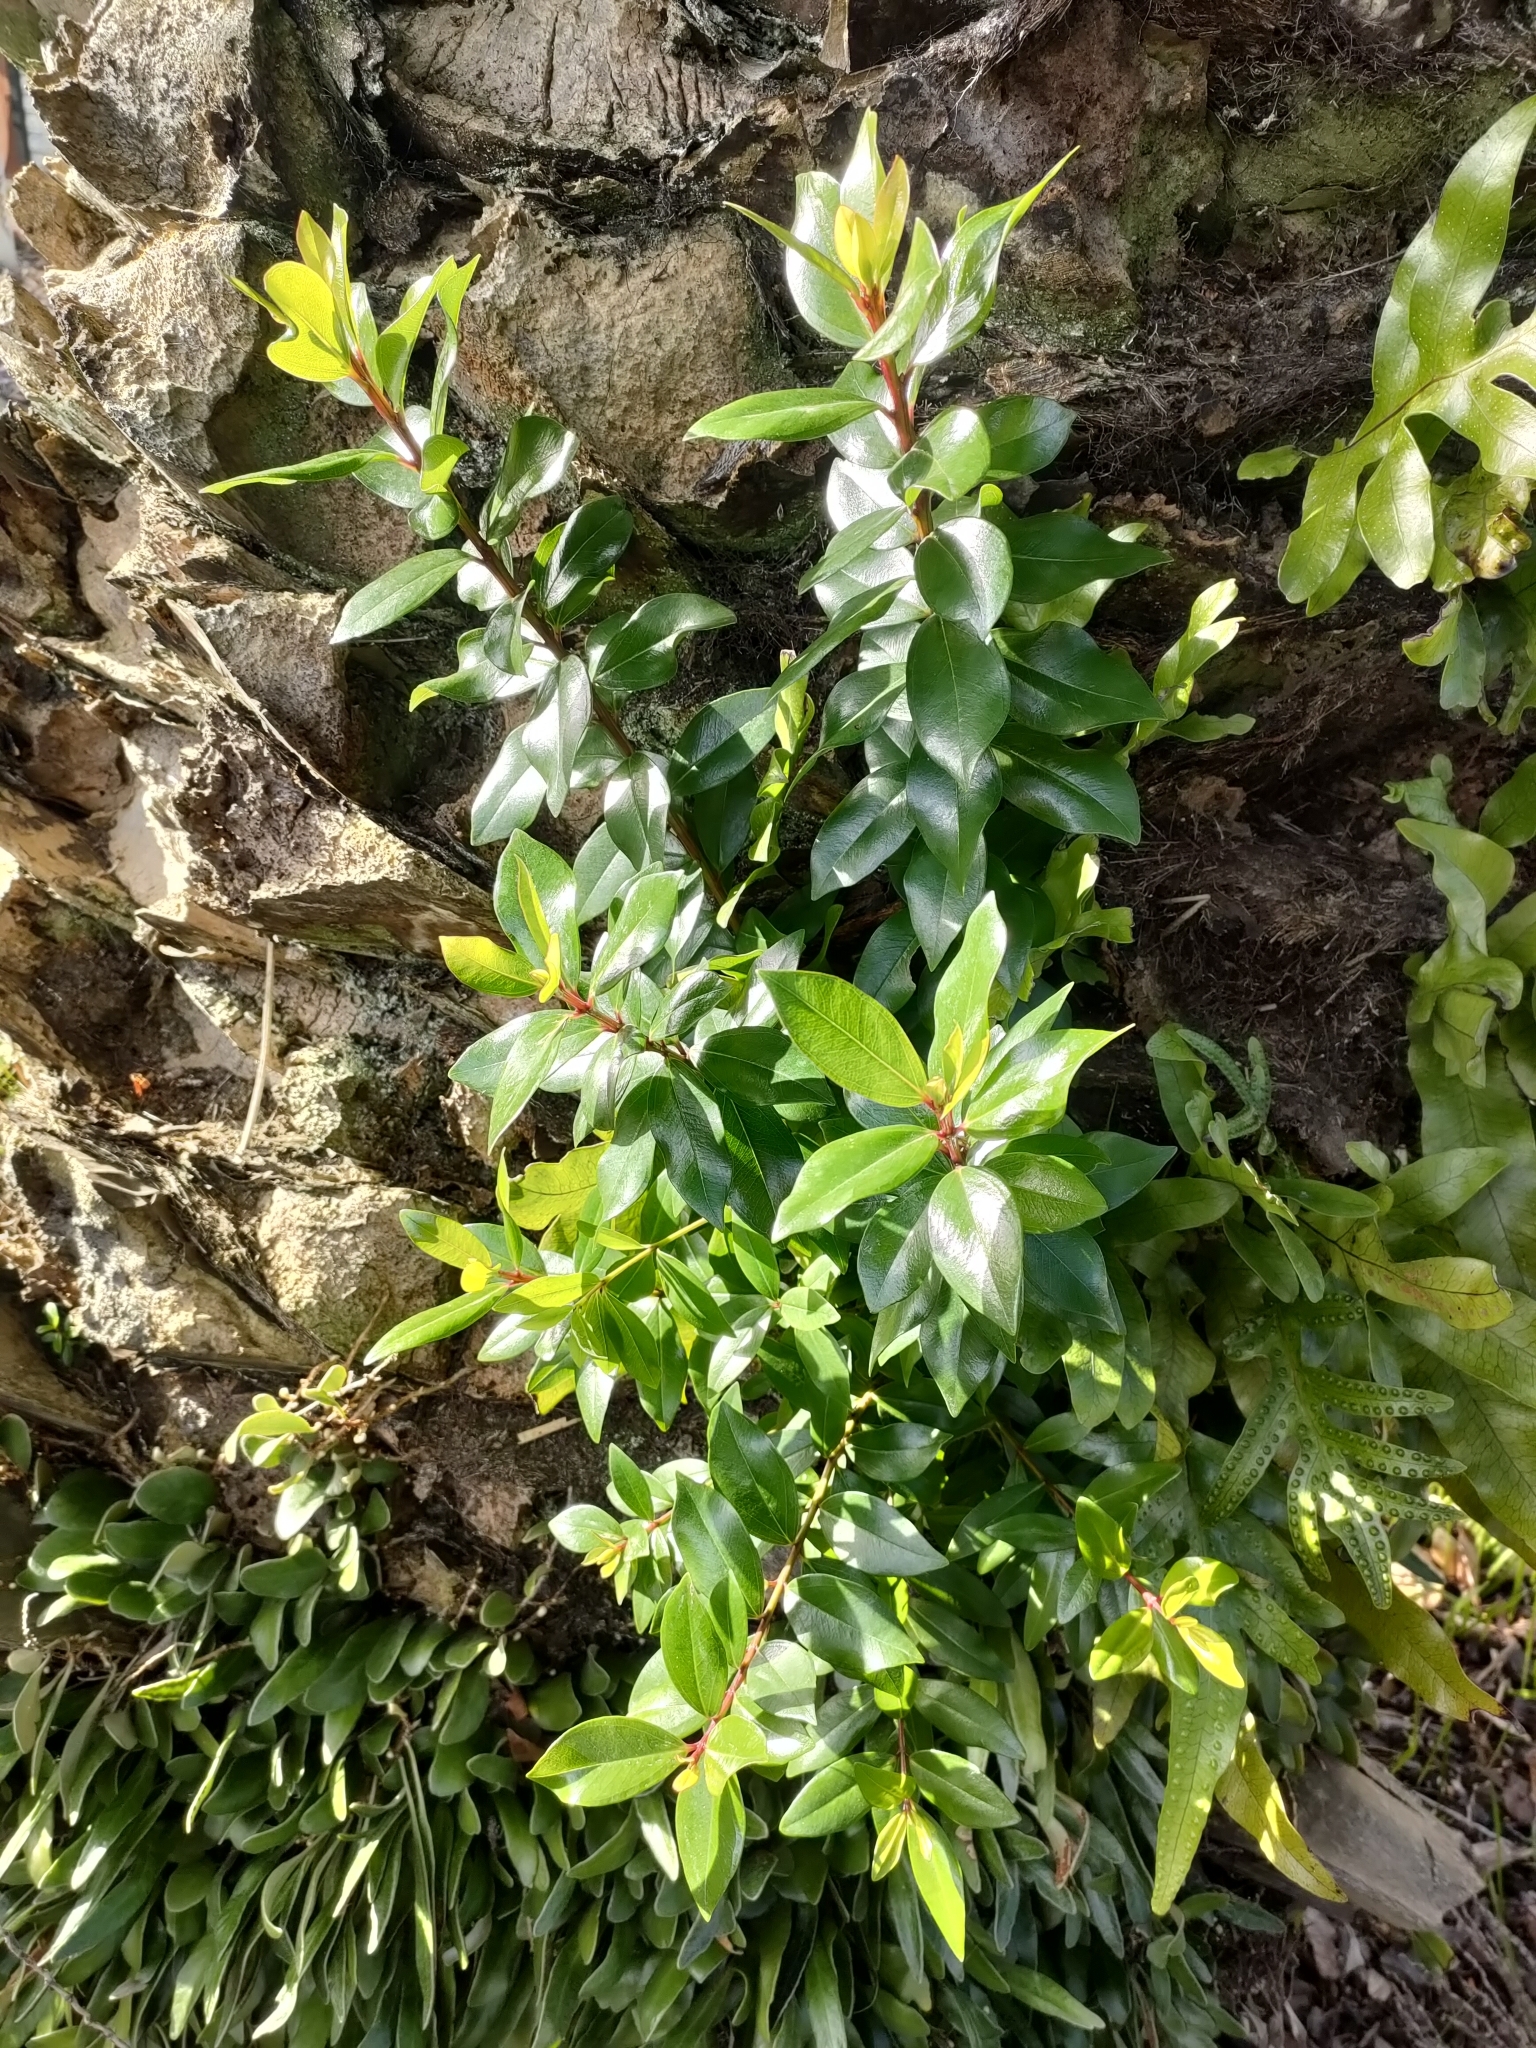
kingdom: Plantae
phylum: Tracheophyta
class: Magnoliopsida
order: Myrtales
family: Myrtaceae
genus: Metrosideros
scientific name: Metrosideros excelsa
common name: New zealand christmastree
